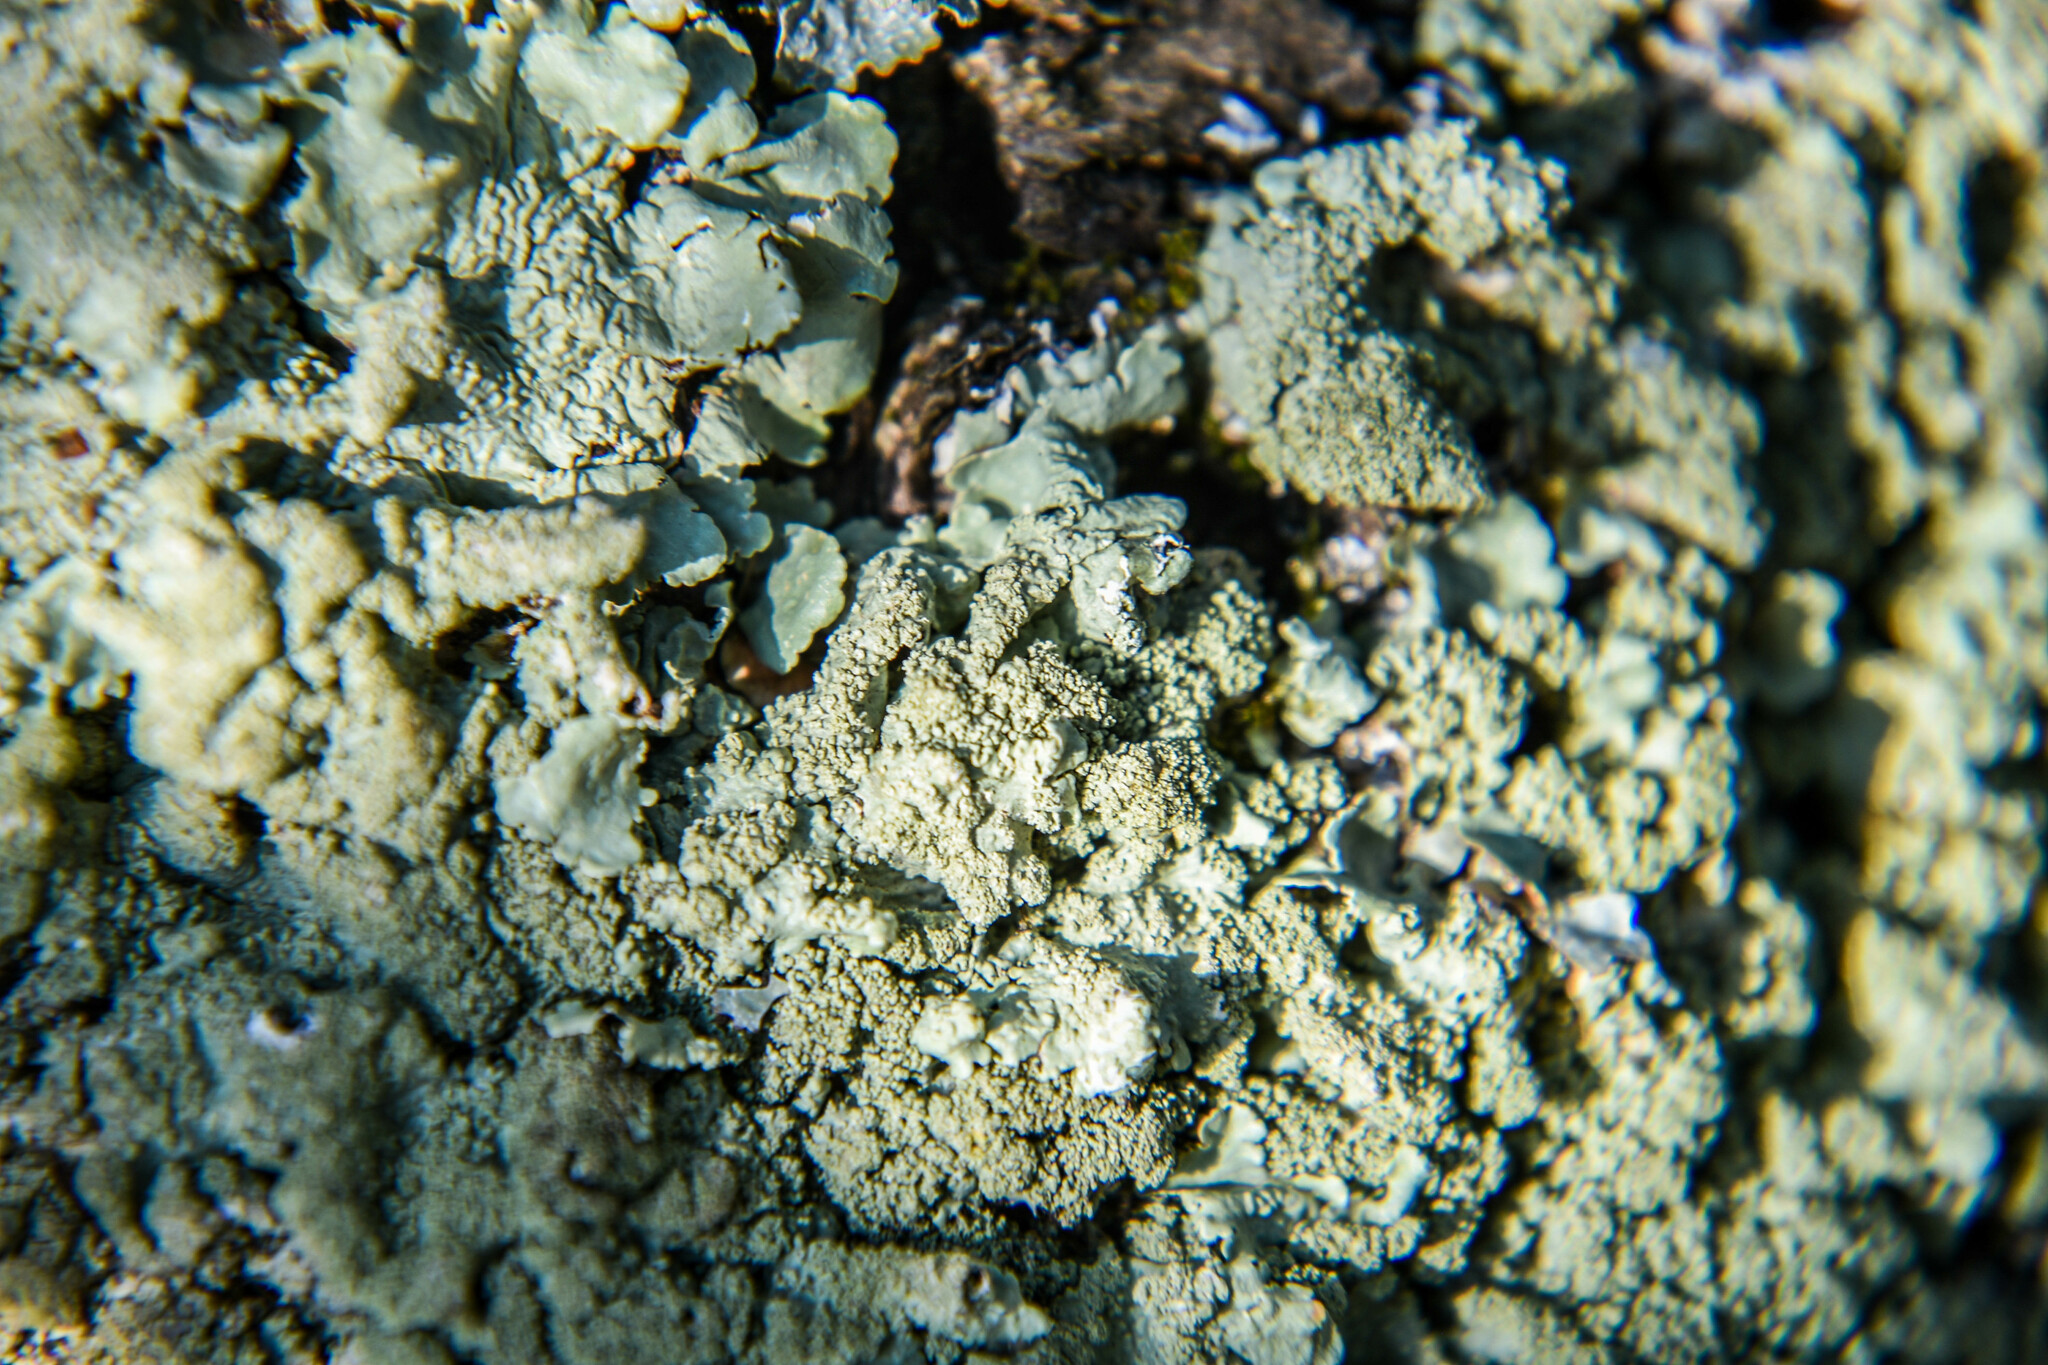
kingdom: Fungi
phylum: Ascomycota
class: Lecanoromycetes
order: Lecanorales
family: Parmeliaceae
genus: Flavoparmelia
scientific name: Flavoparmelia caperata
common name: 40-mile per hour lichen
